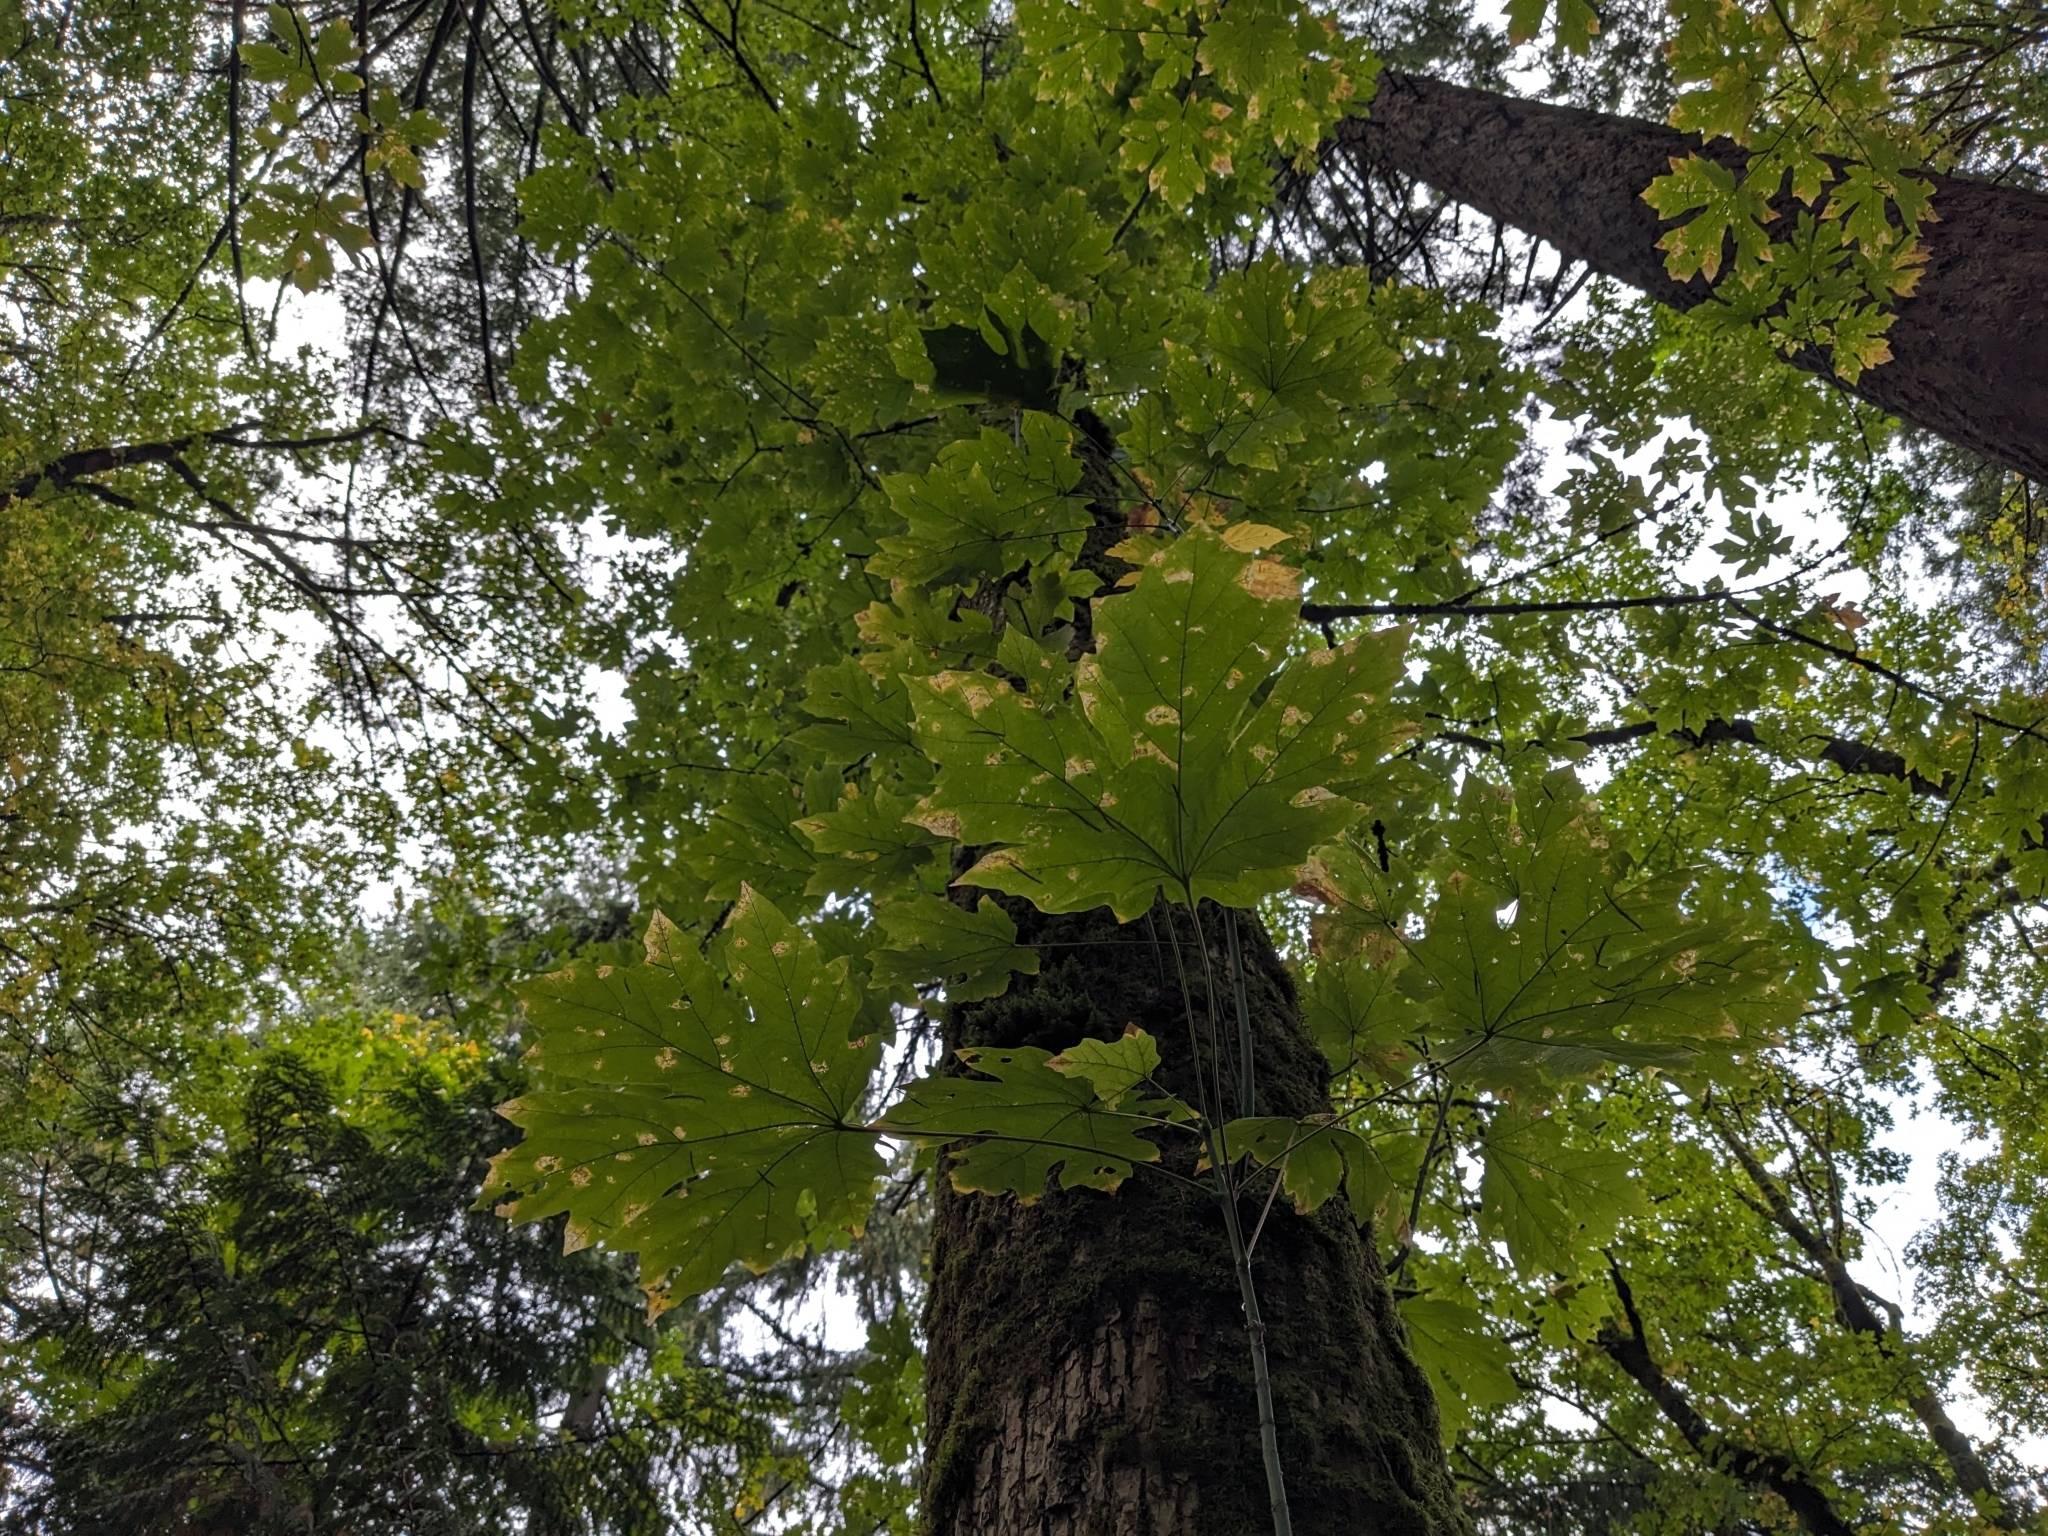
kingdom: Plantae
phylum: Tracheophyta
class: Magnoliopsida
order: Sapindales
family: Sapindaceae
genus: Acer
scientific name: Acer macrophyllum
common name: Oregon maple
